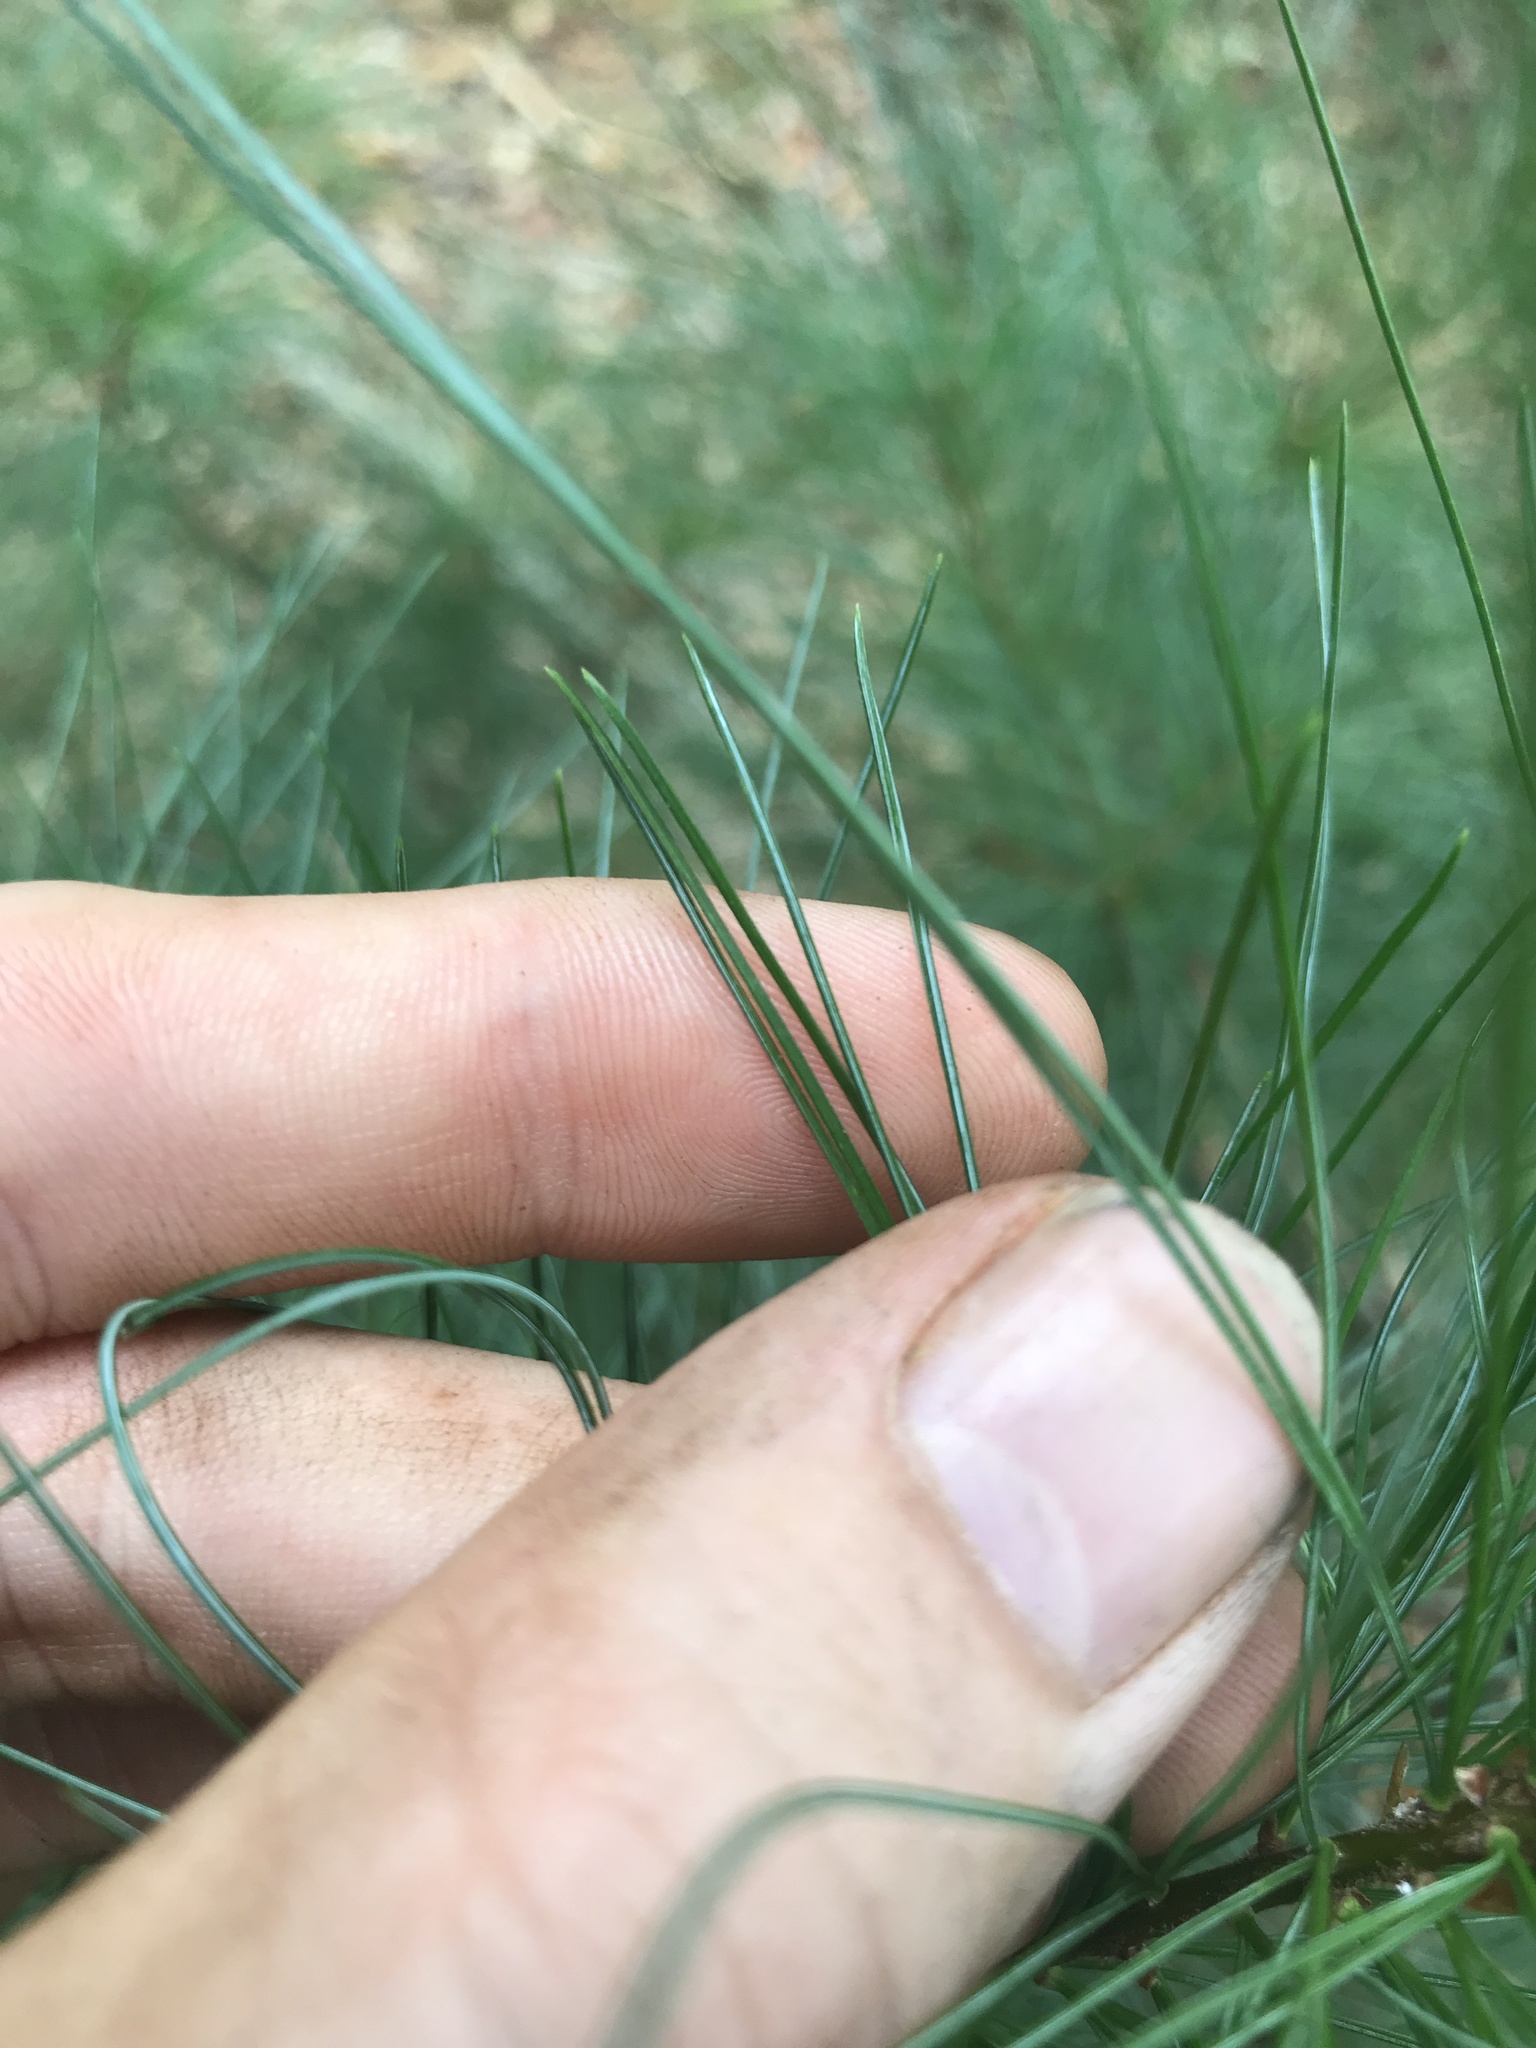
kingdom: Plantae
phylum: Tracheophyta
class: Pinopsida
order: Pinales
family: Pinaceae
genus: Pinus
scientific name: Pinus strobus
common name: Weymouth pine
